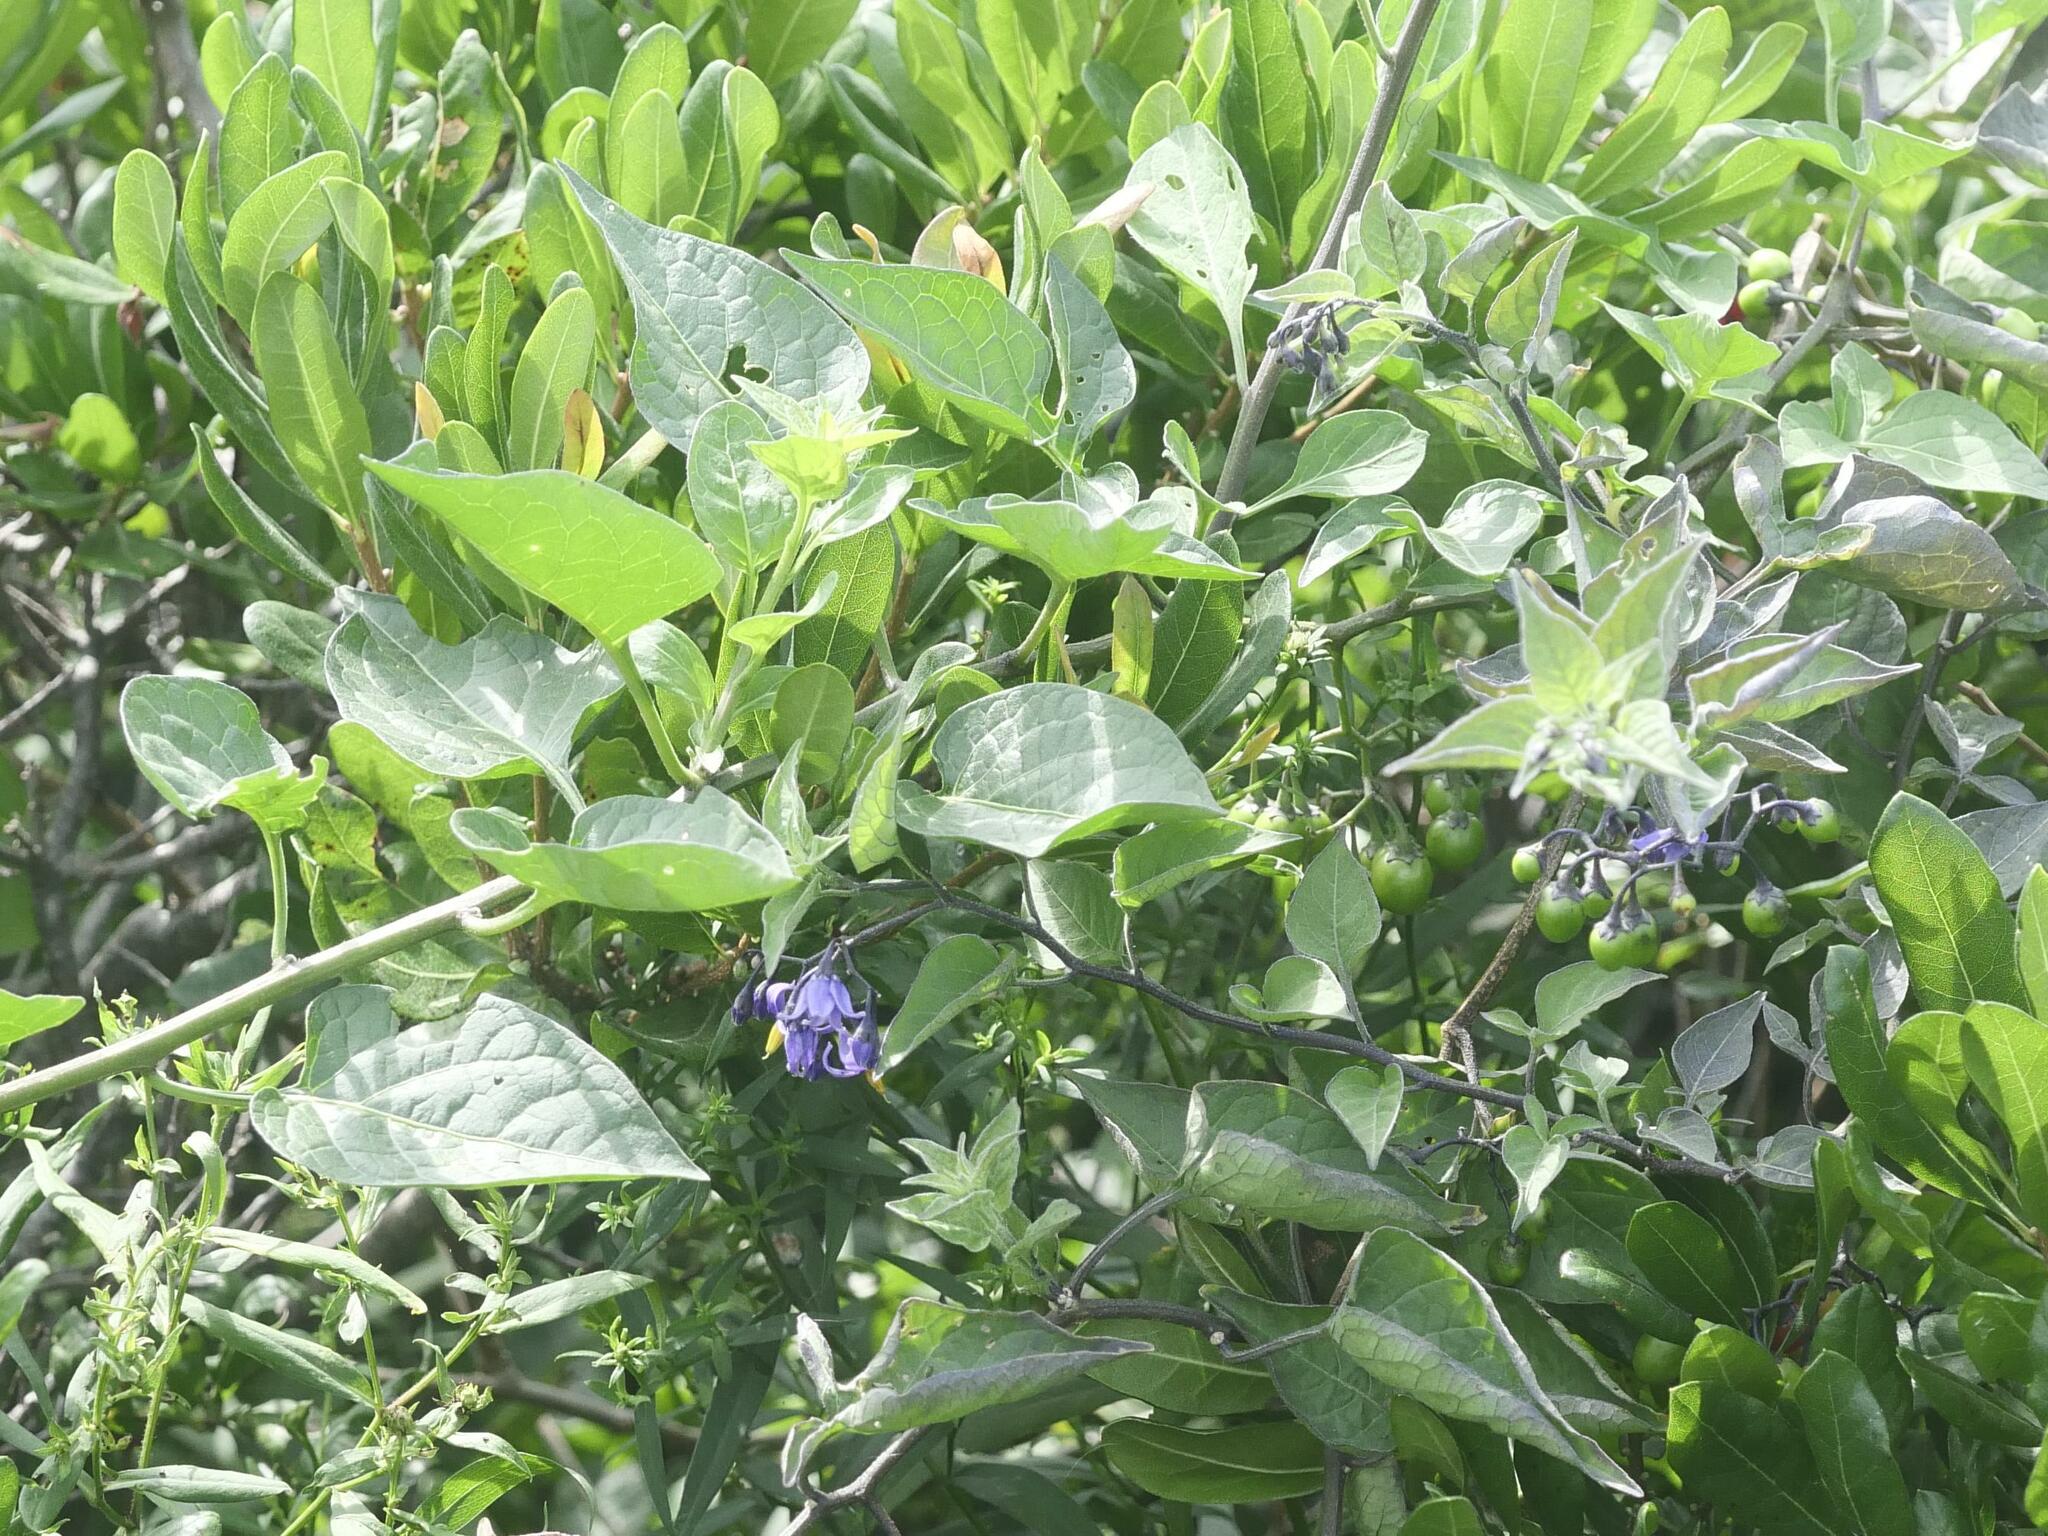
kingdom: Plantae
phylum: Tracheophyta
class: Magnoliopsida
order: Solanales
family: Solanaceae
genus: Solanum
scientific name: Solanum dulcamara
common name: Climbing nightshade
